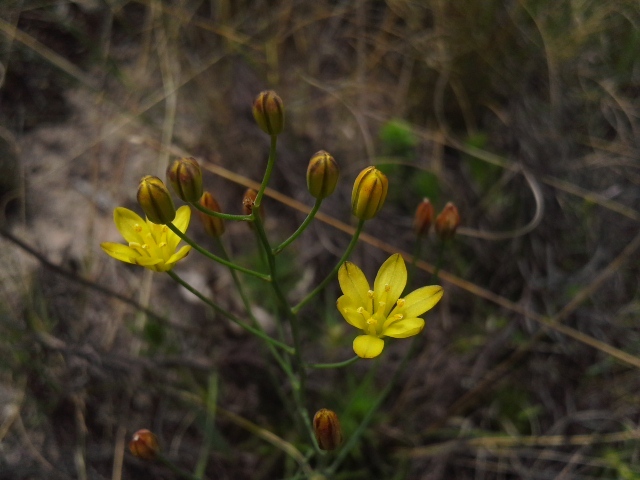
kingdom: Plantae
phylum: Tracheophyta
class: Liliopsida
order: Asparagales
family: Asparagaceae
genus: Eriospermum
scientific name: Eriospermum abyssinicum
